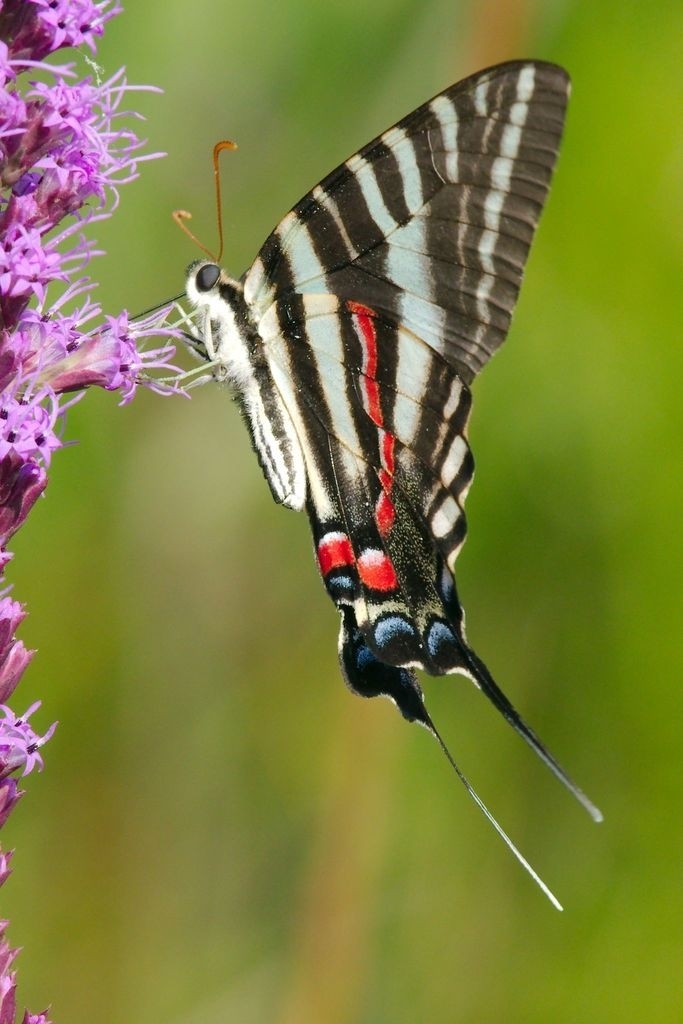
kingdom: Animalia
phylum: Arthropoda
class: Insecta
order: Lepidoptera
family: Papilionidae
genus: Protographium
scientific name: Protographium marcellus
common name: Zebra swallowtail
